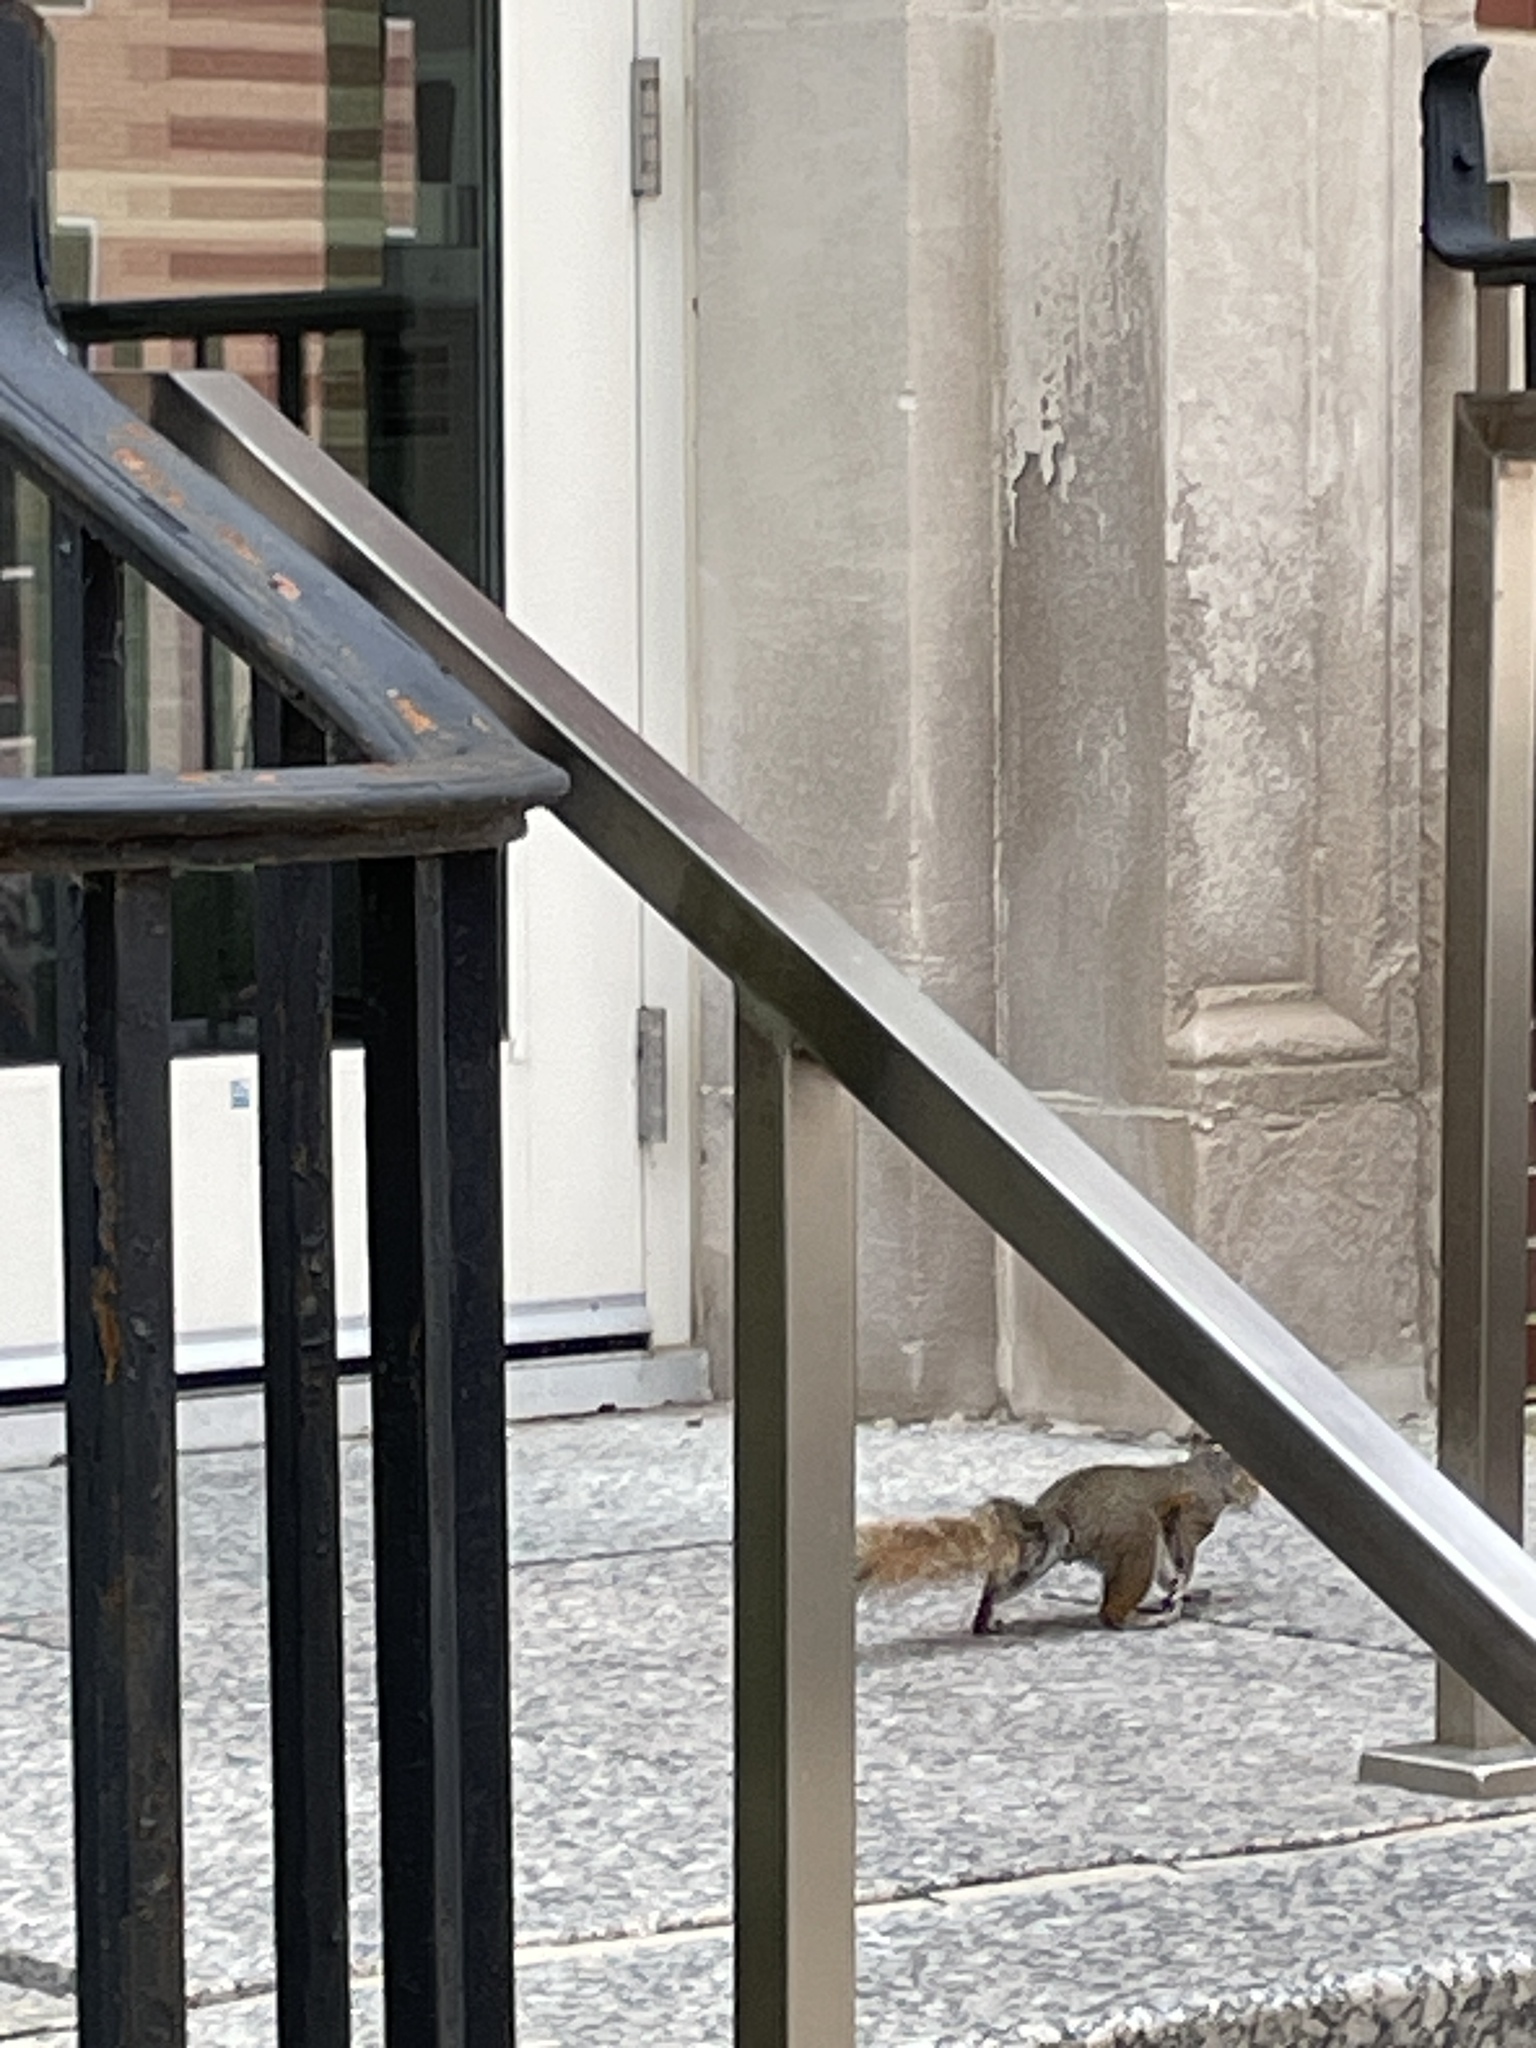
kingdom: Animalia
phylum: Chordata
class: Mammalia
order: Rodentia
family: Sciuridae
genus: Sciurus
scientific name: Sciurus carolinensis
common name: Eastern gray squirrel
